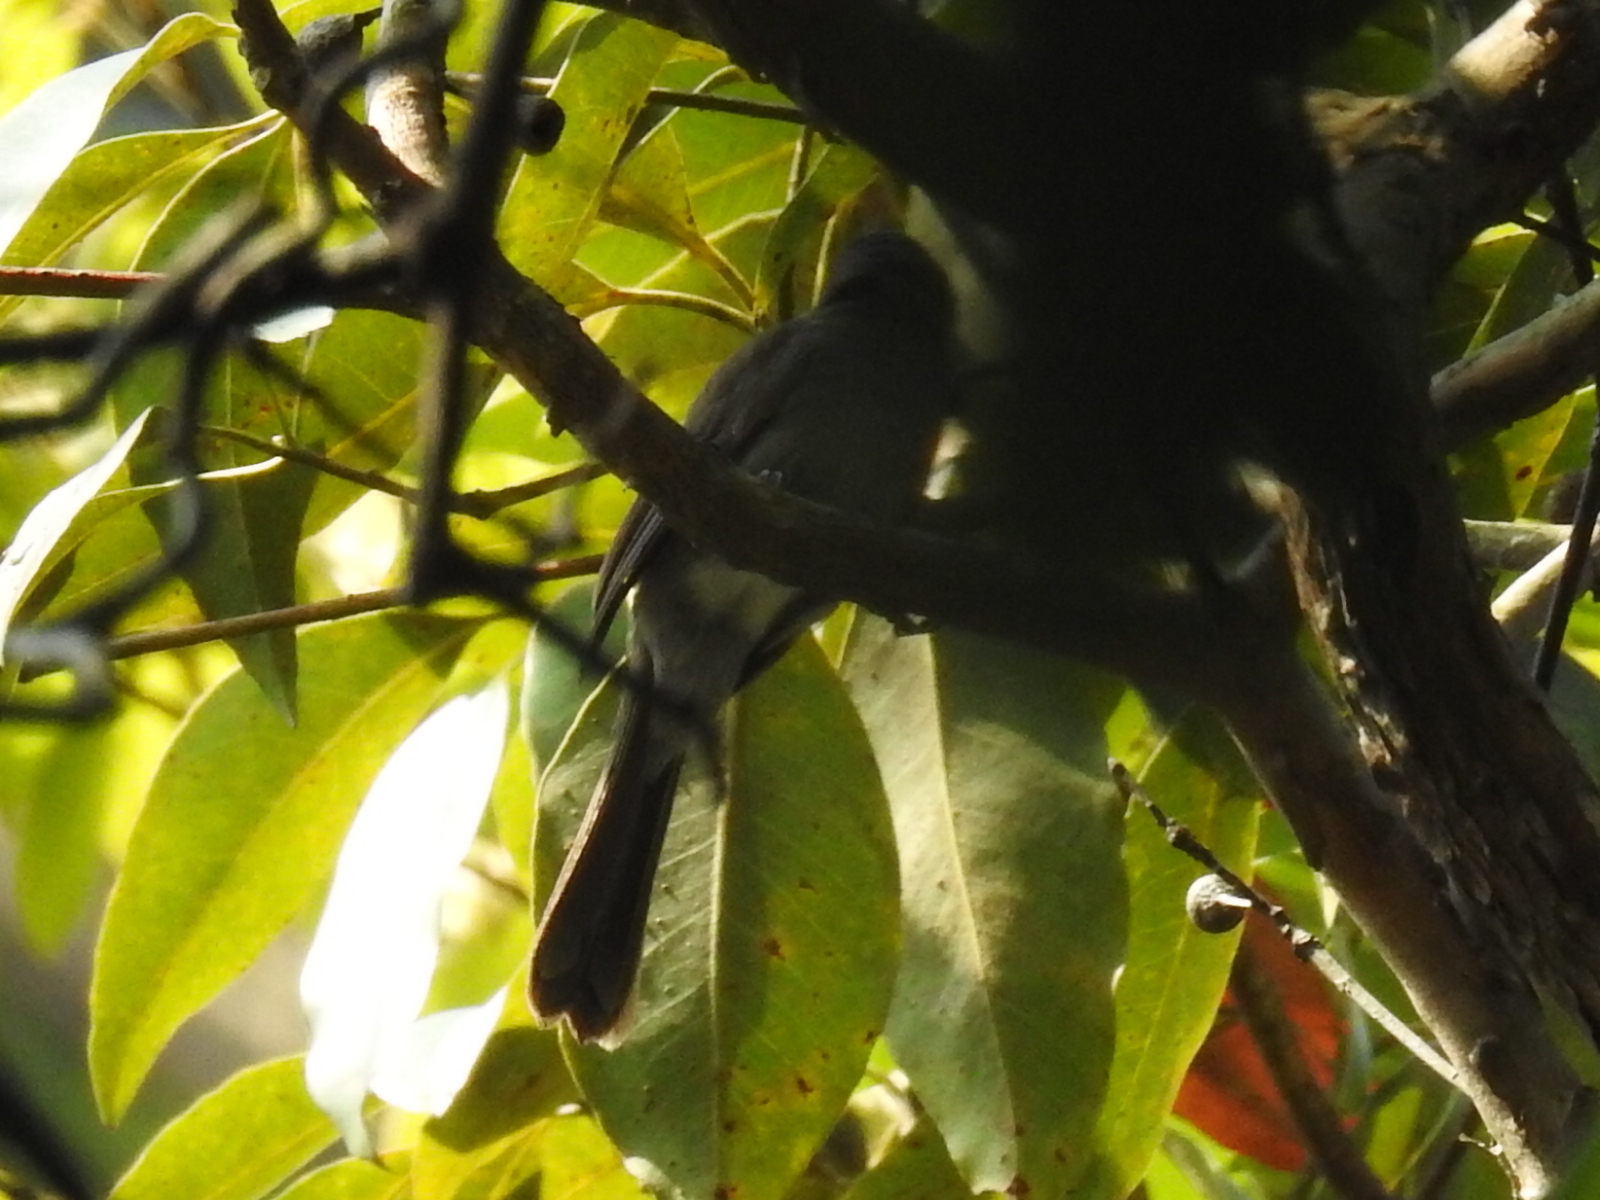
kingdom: Animalia
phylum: Chordata
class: Aves
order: Passeriformes
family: Monarchidae
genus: Hypothymis
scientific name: Hypothymis azurea
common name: Black-naped monarch
